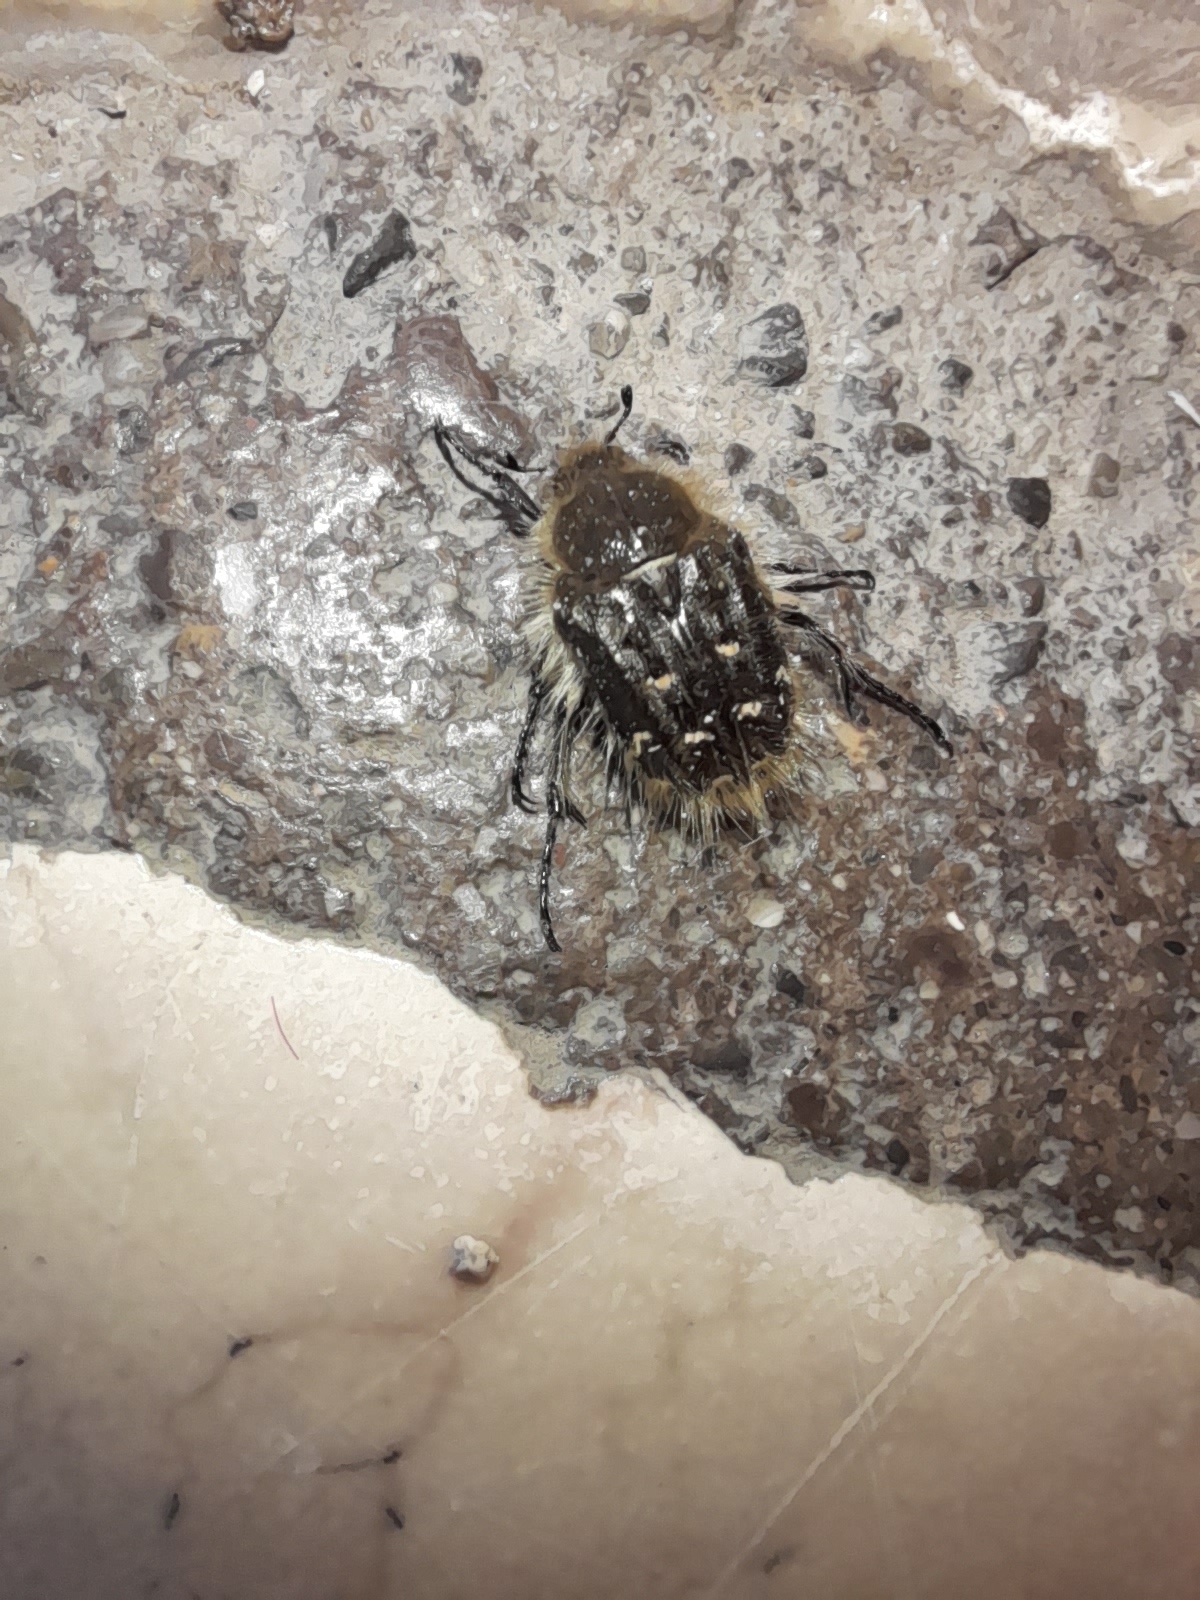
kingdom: Animalia
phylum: Arthropoda
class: Insecta
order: Coleoptera
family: Scarabaeidae
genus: Tropinota
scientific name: Tropinota squalida
